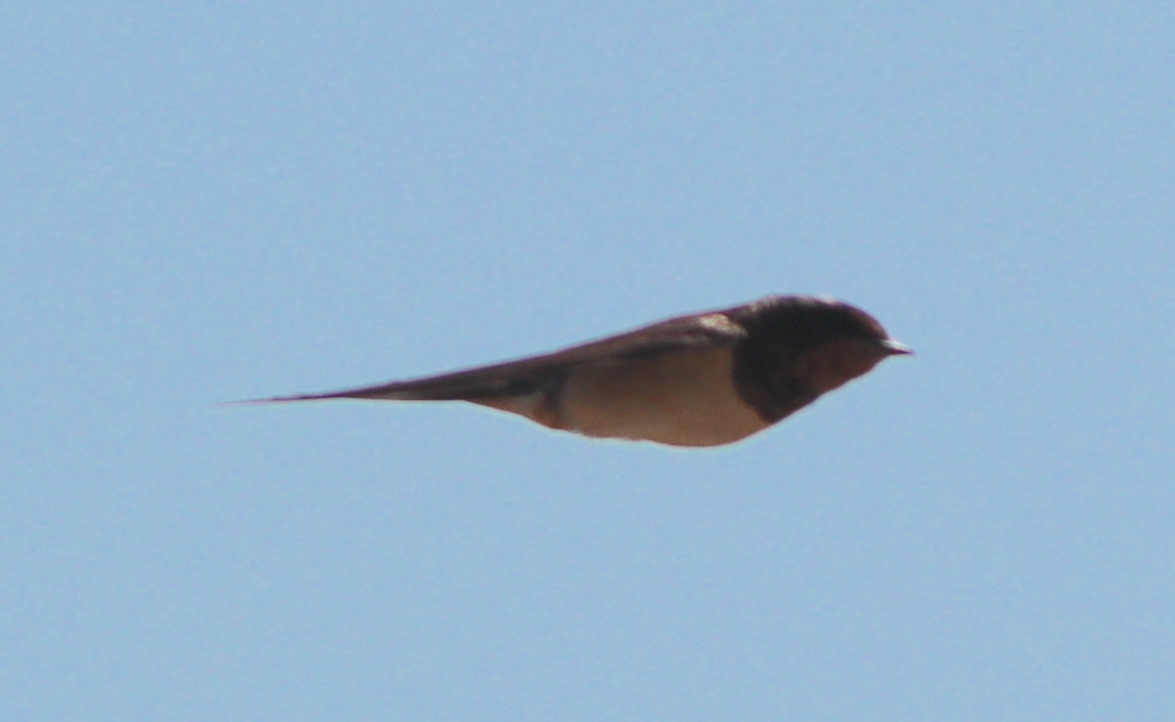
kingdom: Animalia
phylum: Chordata
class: Aves
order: Passeriformes
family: Hirundinidae
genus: Hirundo
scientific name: Hirundo rustica
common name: Barn swallow
